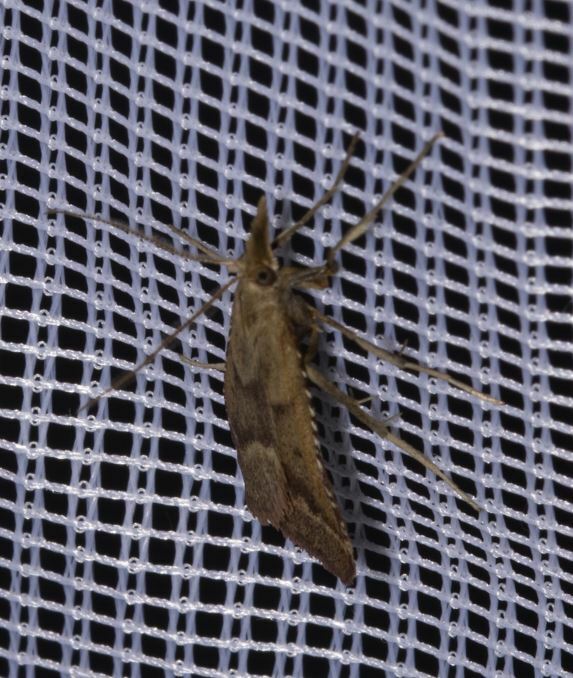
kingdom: Animalia
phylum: Arthropoda
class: Insecta
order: Lepidoptera
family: Pyralidae
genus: Synaphe
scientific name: Synaphe punctalis
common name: Long-legged tabby
